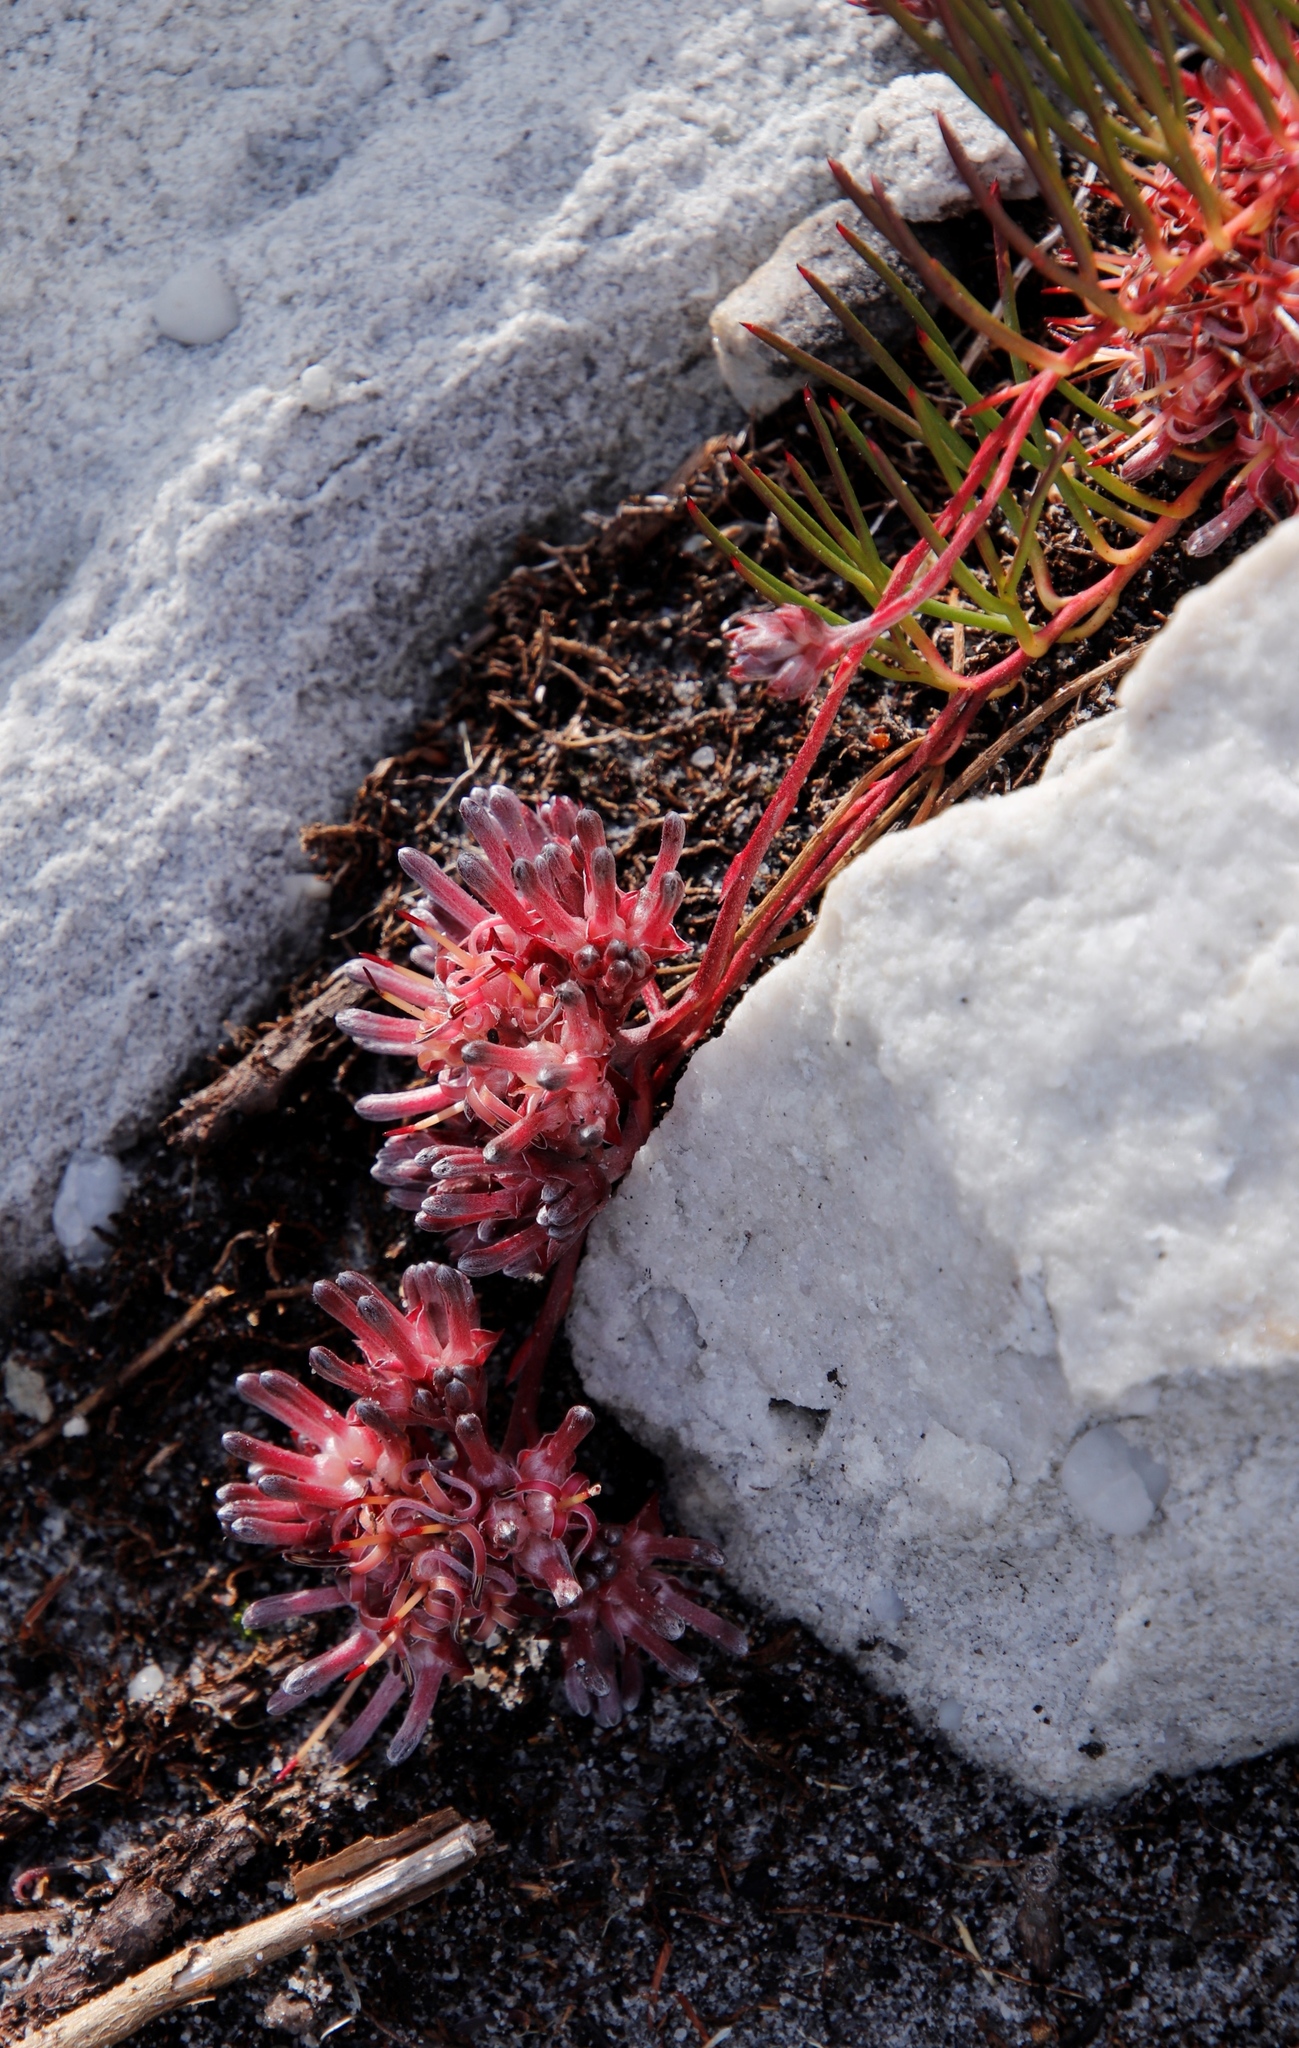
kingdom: Plantae
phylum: Tracheophyta
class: Magnoliopsida
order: Proteales
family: Proteaceae
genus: Serruria
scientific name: Serruria decumbens
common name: Peninsula spiderhead
